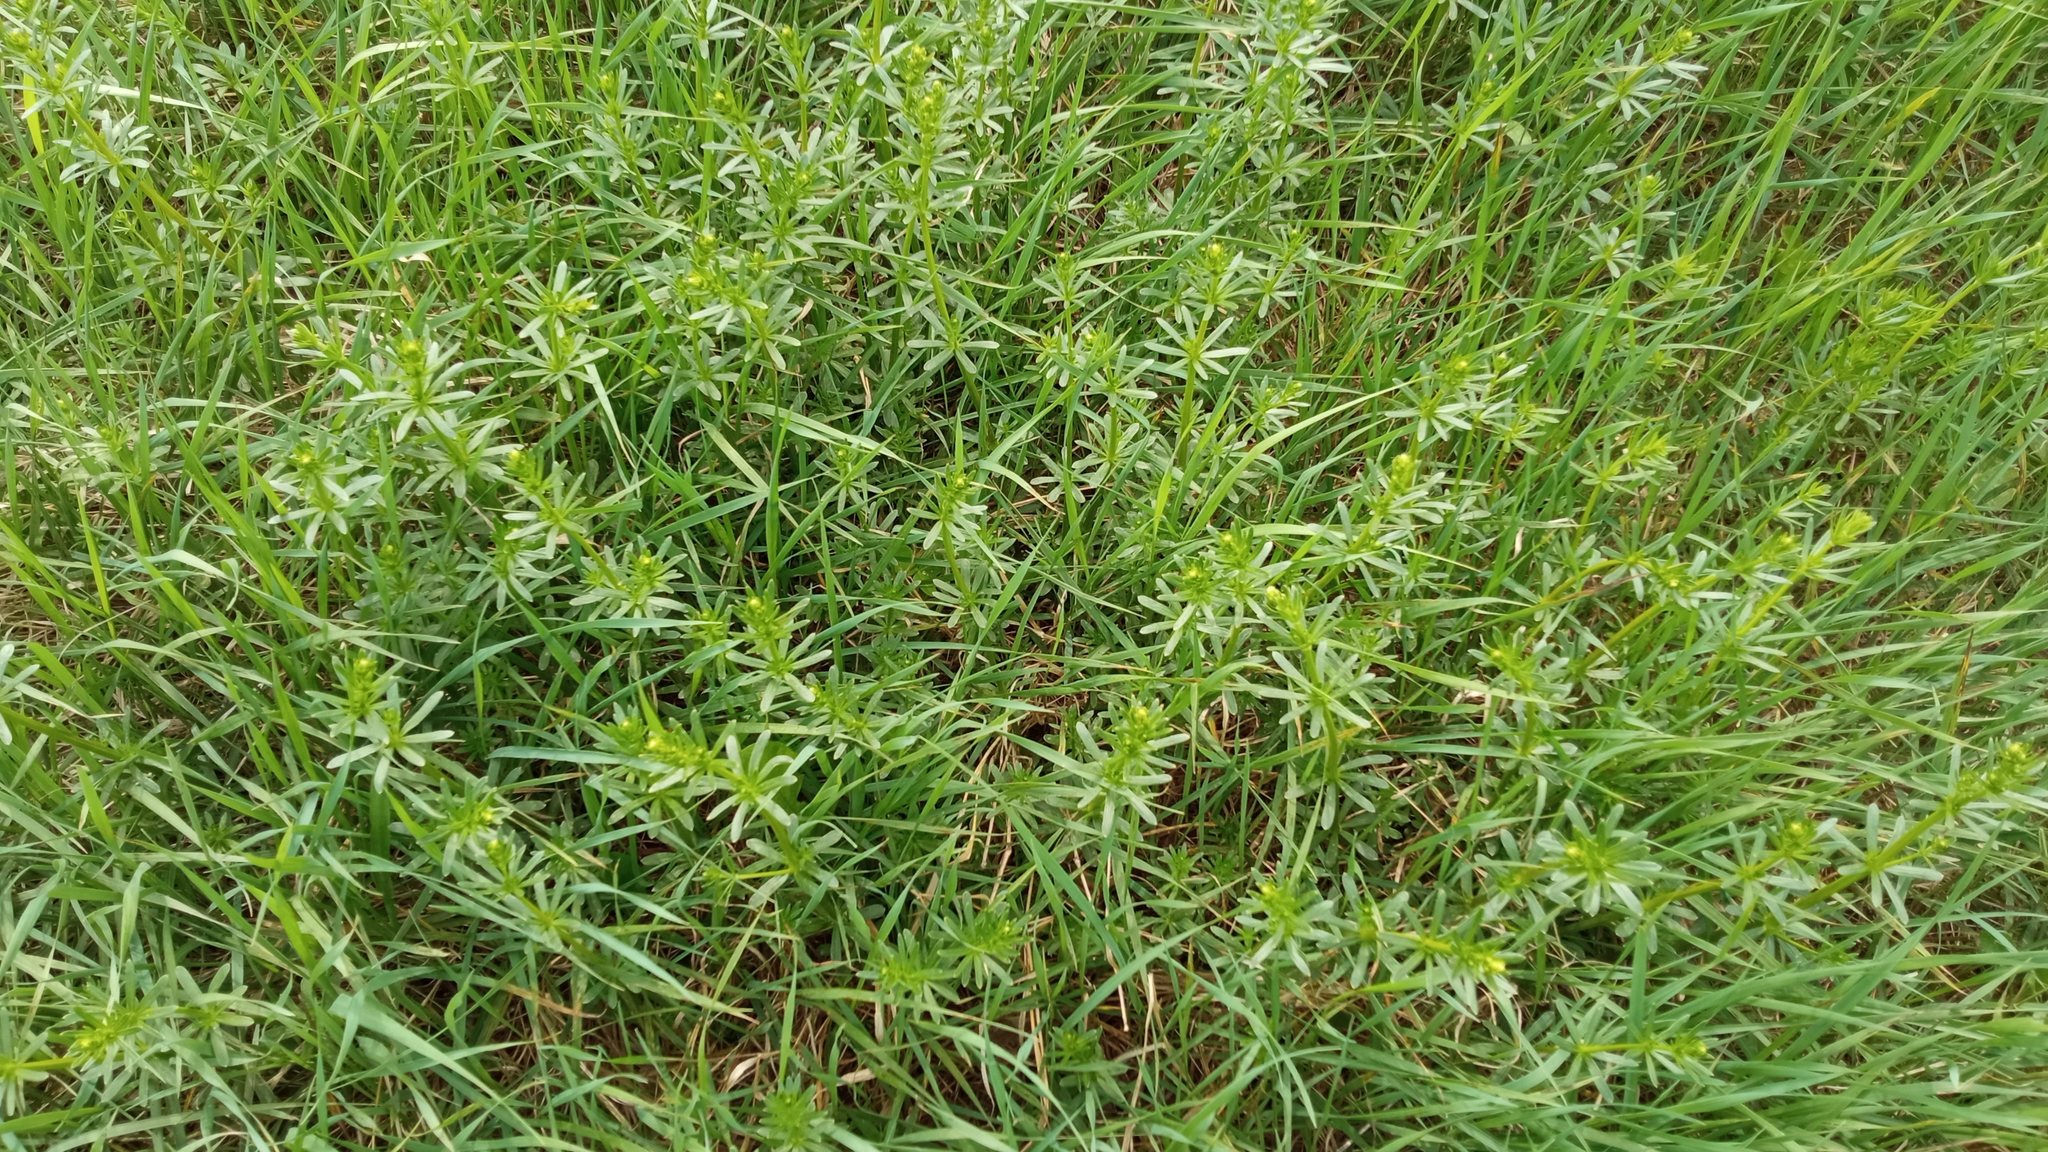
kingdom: Plantae
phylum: Tracheophyta
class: Magnoliopsida
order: Gentianales
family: Rubiaceae
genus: Galium
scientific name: Galium mollugo
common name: Hedge bedstraw
